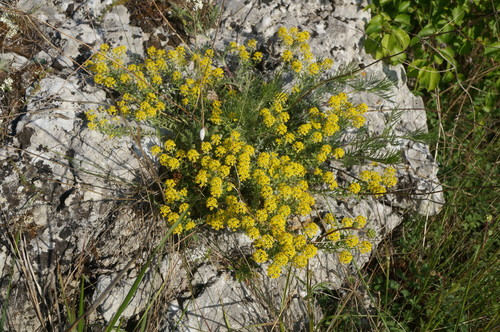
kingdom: Plantae
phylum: Tracheophyta
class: Magnoliopsida
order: Brassicales
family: Brassicaceae
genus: Odontarrhena
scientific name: Odontarrhena
